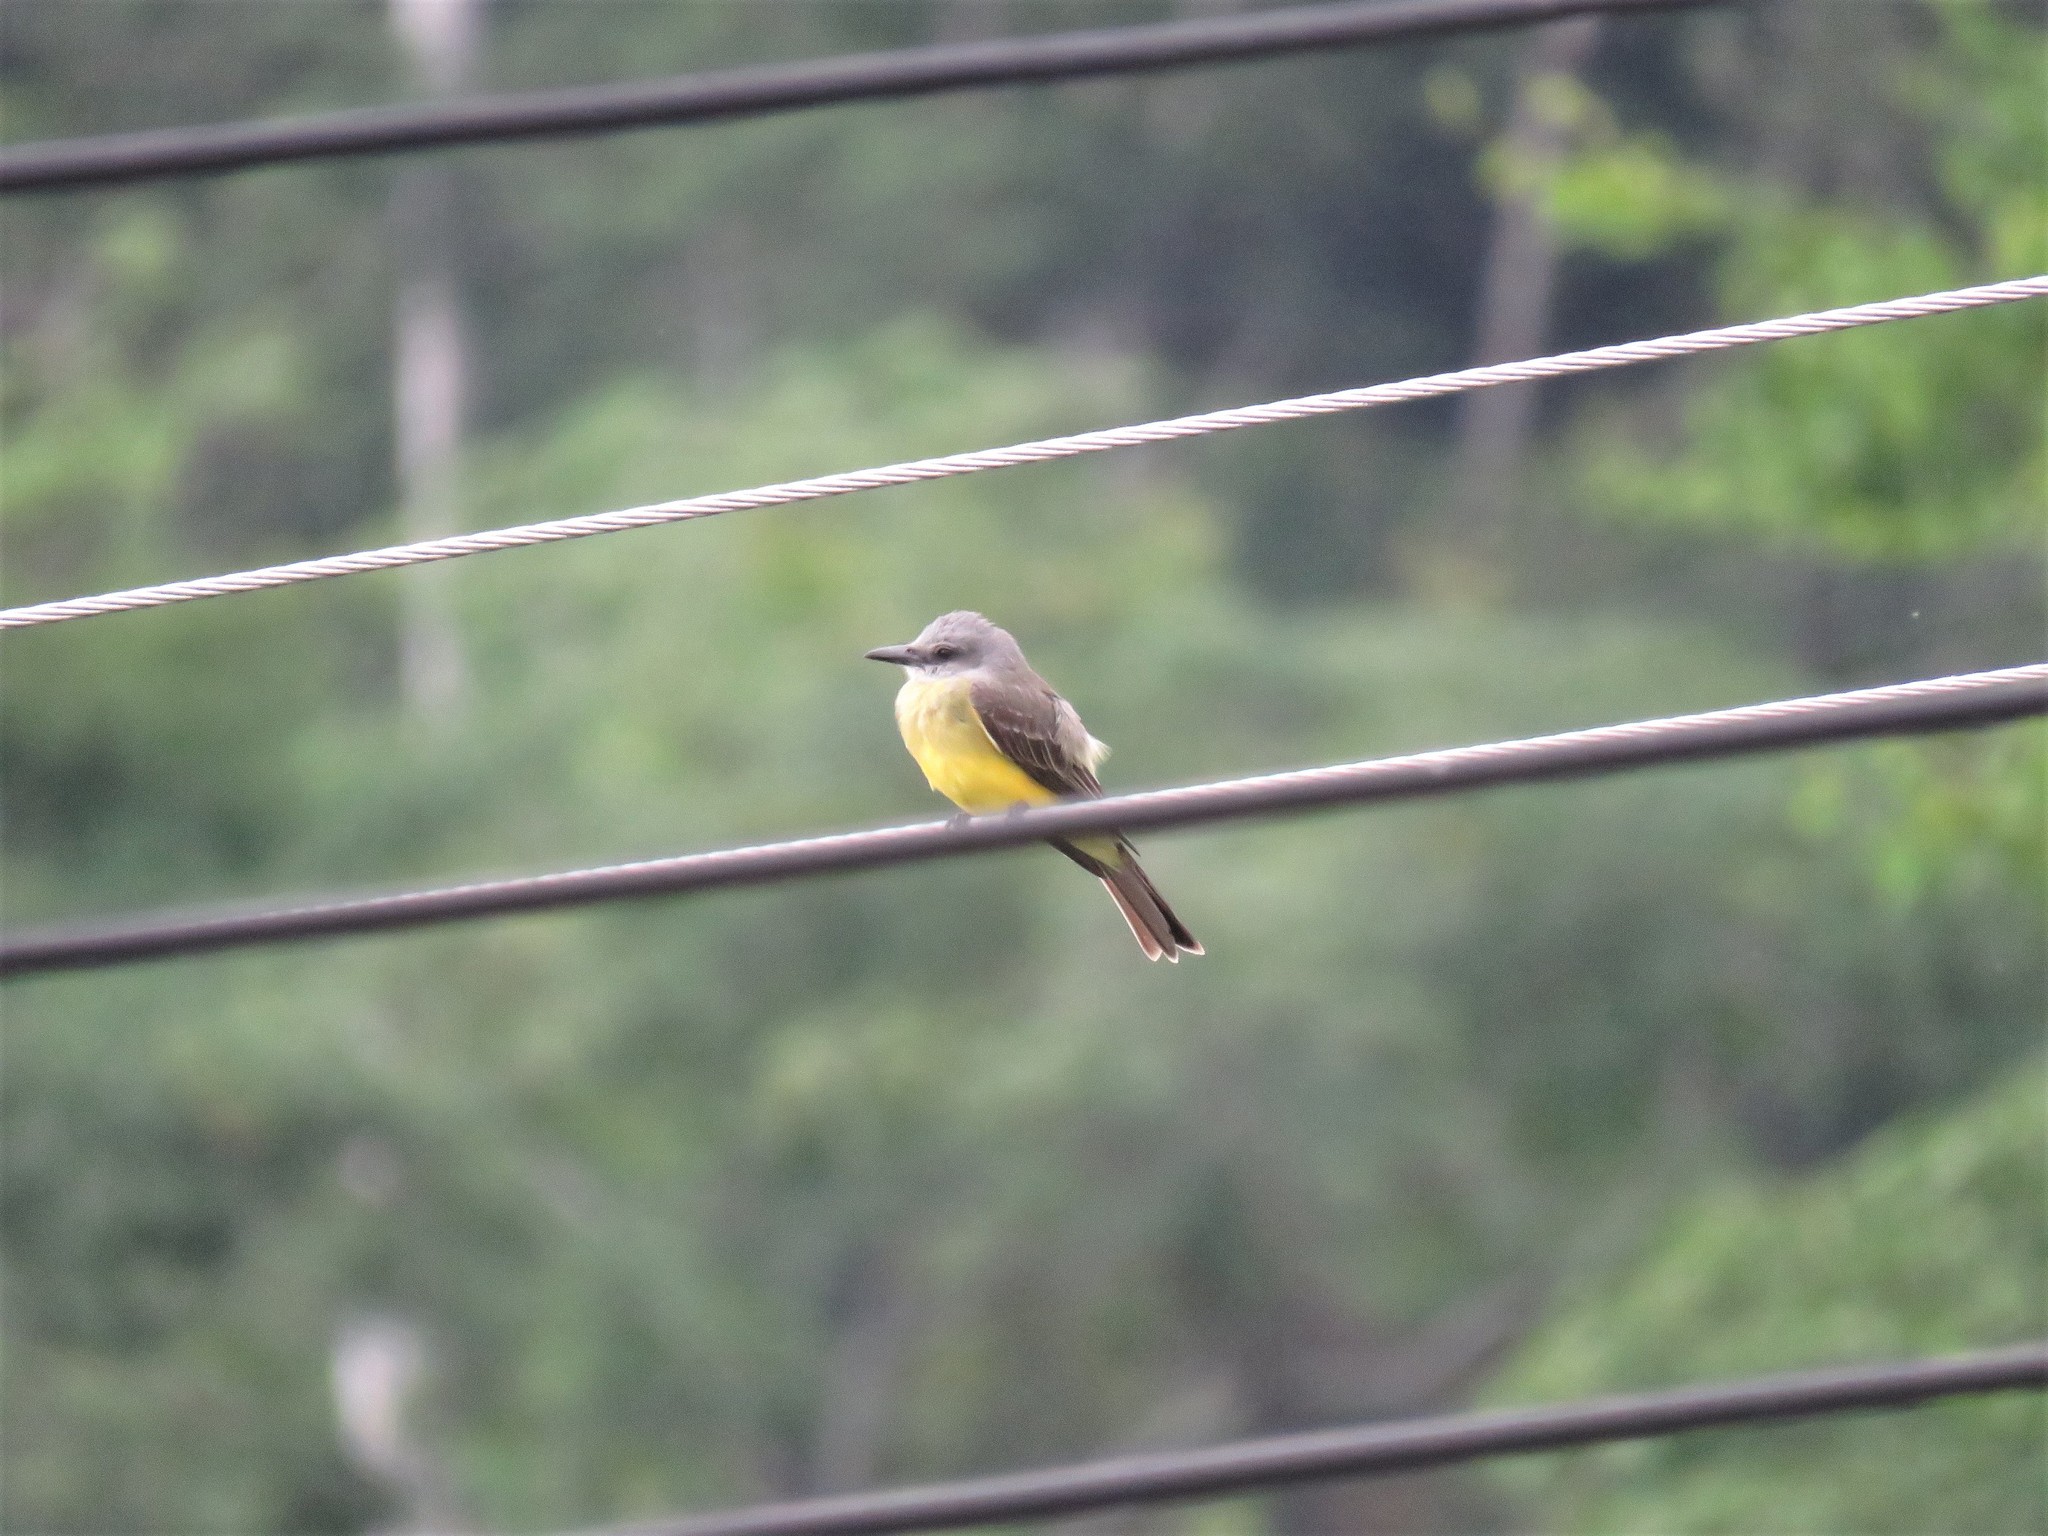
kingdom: Animalia
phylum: Chordata
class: Aves
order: Passeriformes
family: Tyrannidae
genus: Tyrannus
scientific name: Tyrannus melancholicus
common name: Tropical kingbird
